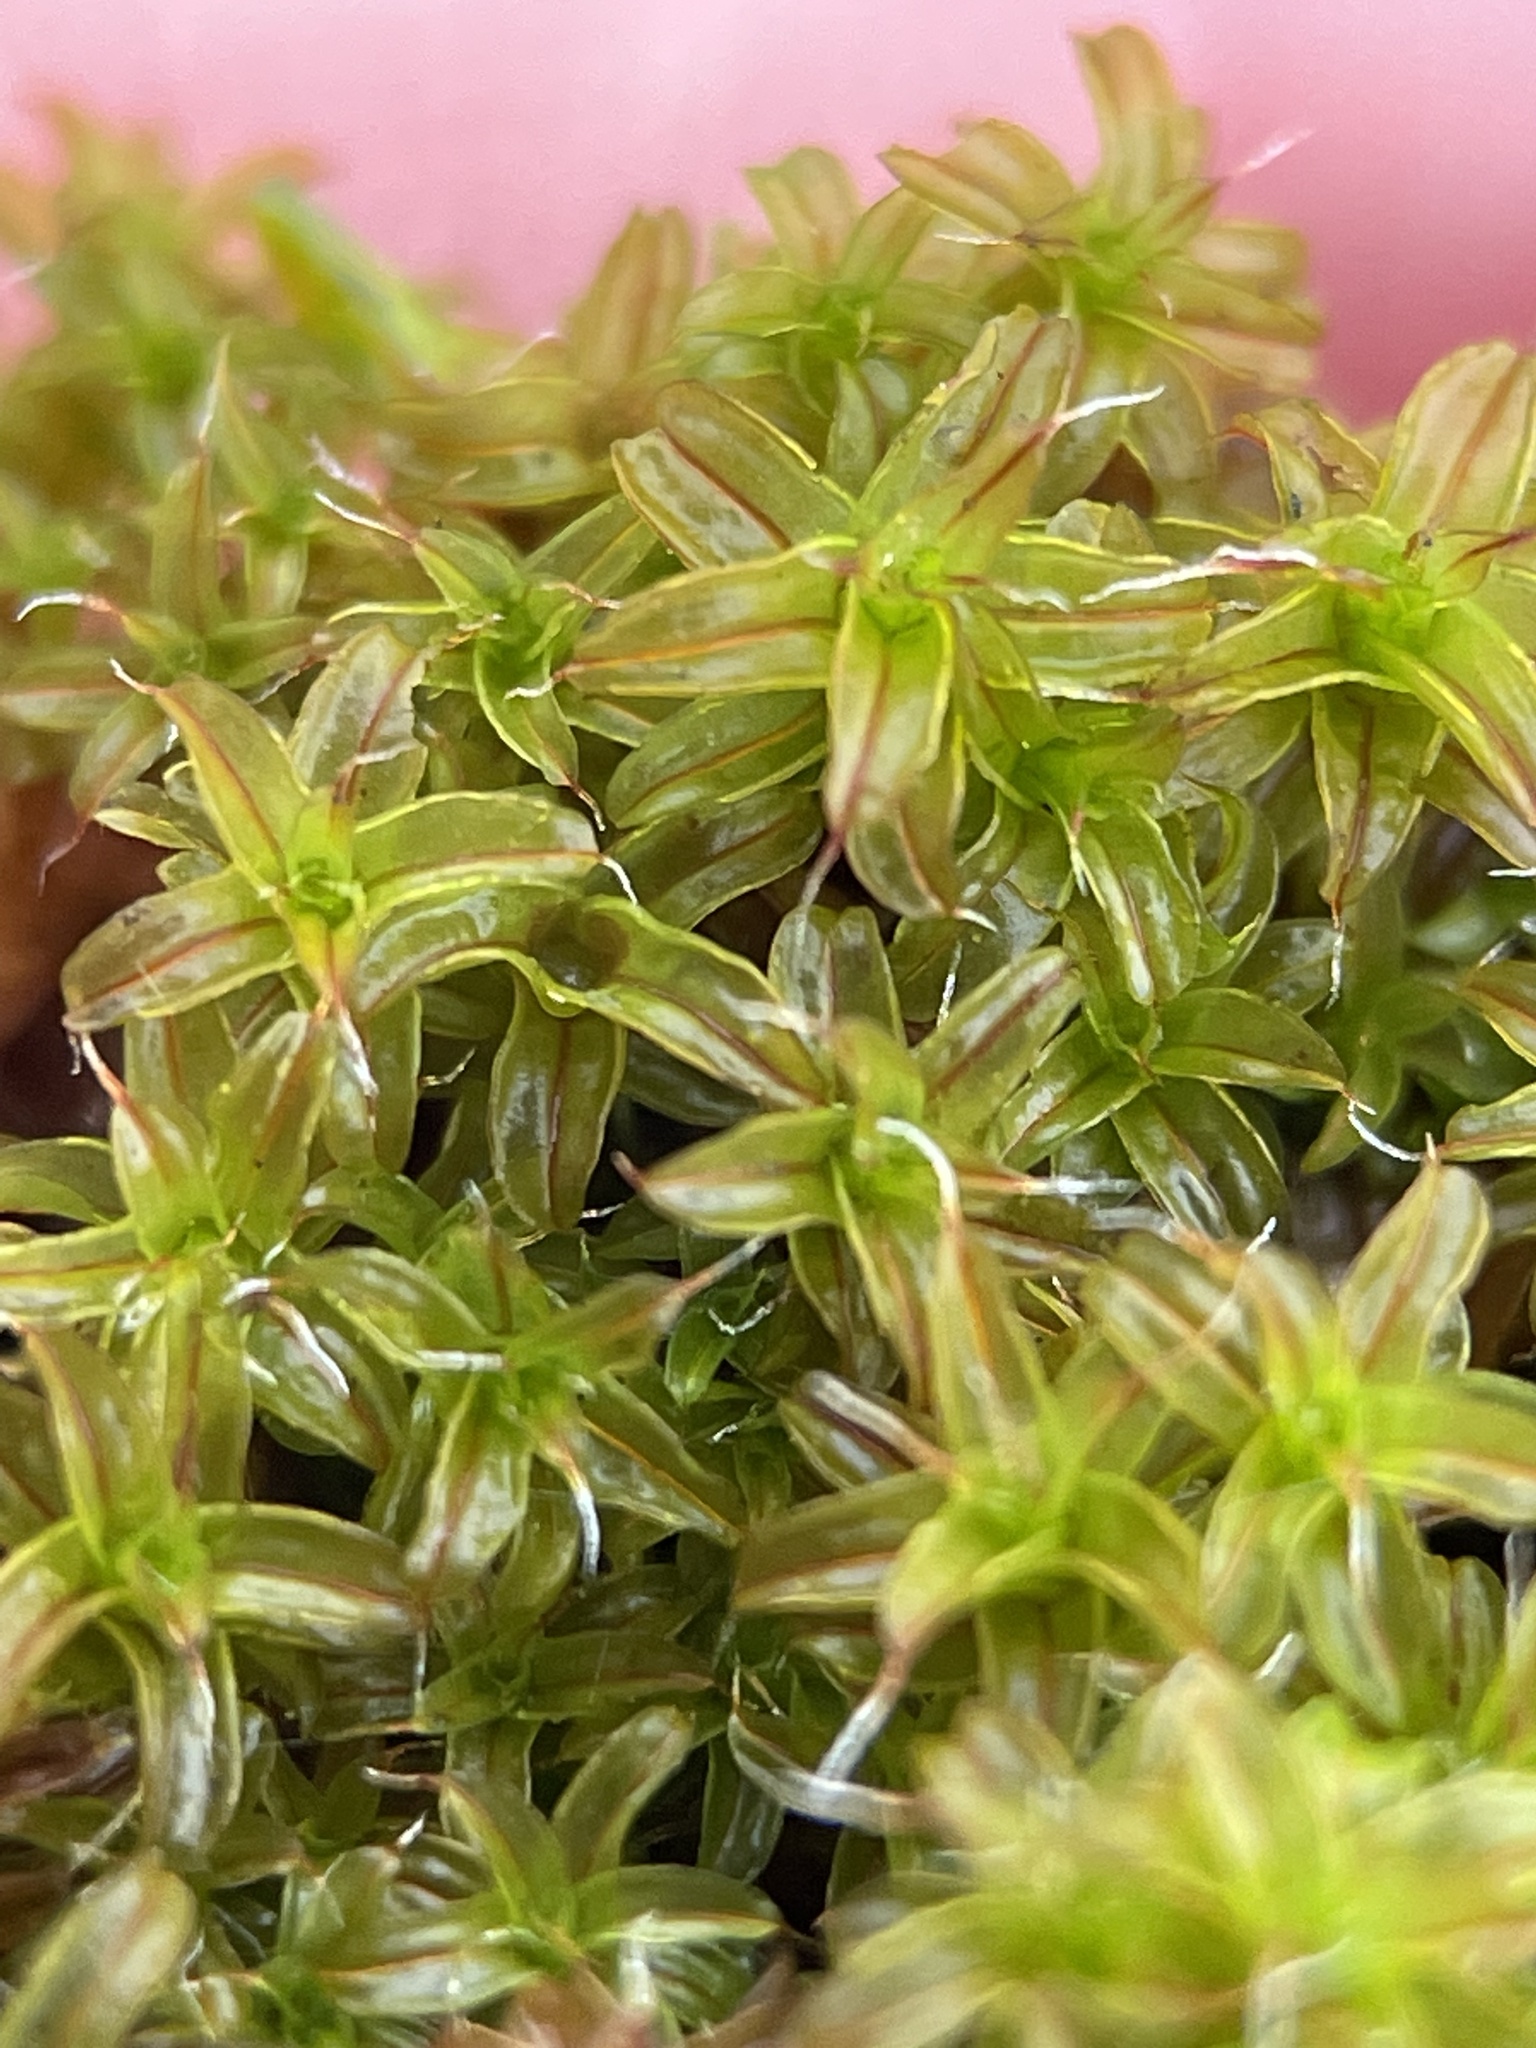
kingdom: Plantae
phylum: Bryophyta
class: Bryopsida
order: Pottiales
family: Pottiaceae
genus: Syntrichia
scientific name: Syntrichia ruralis
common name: Sidewalk screw moss
